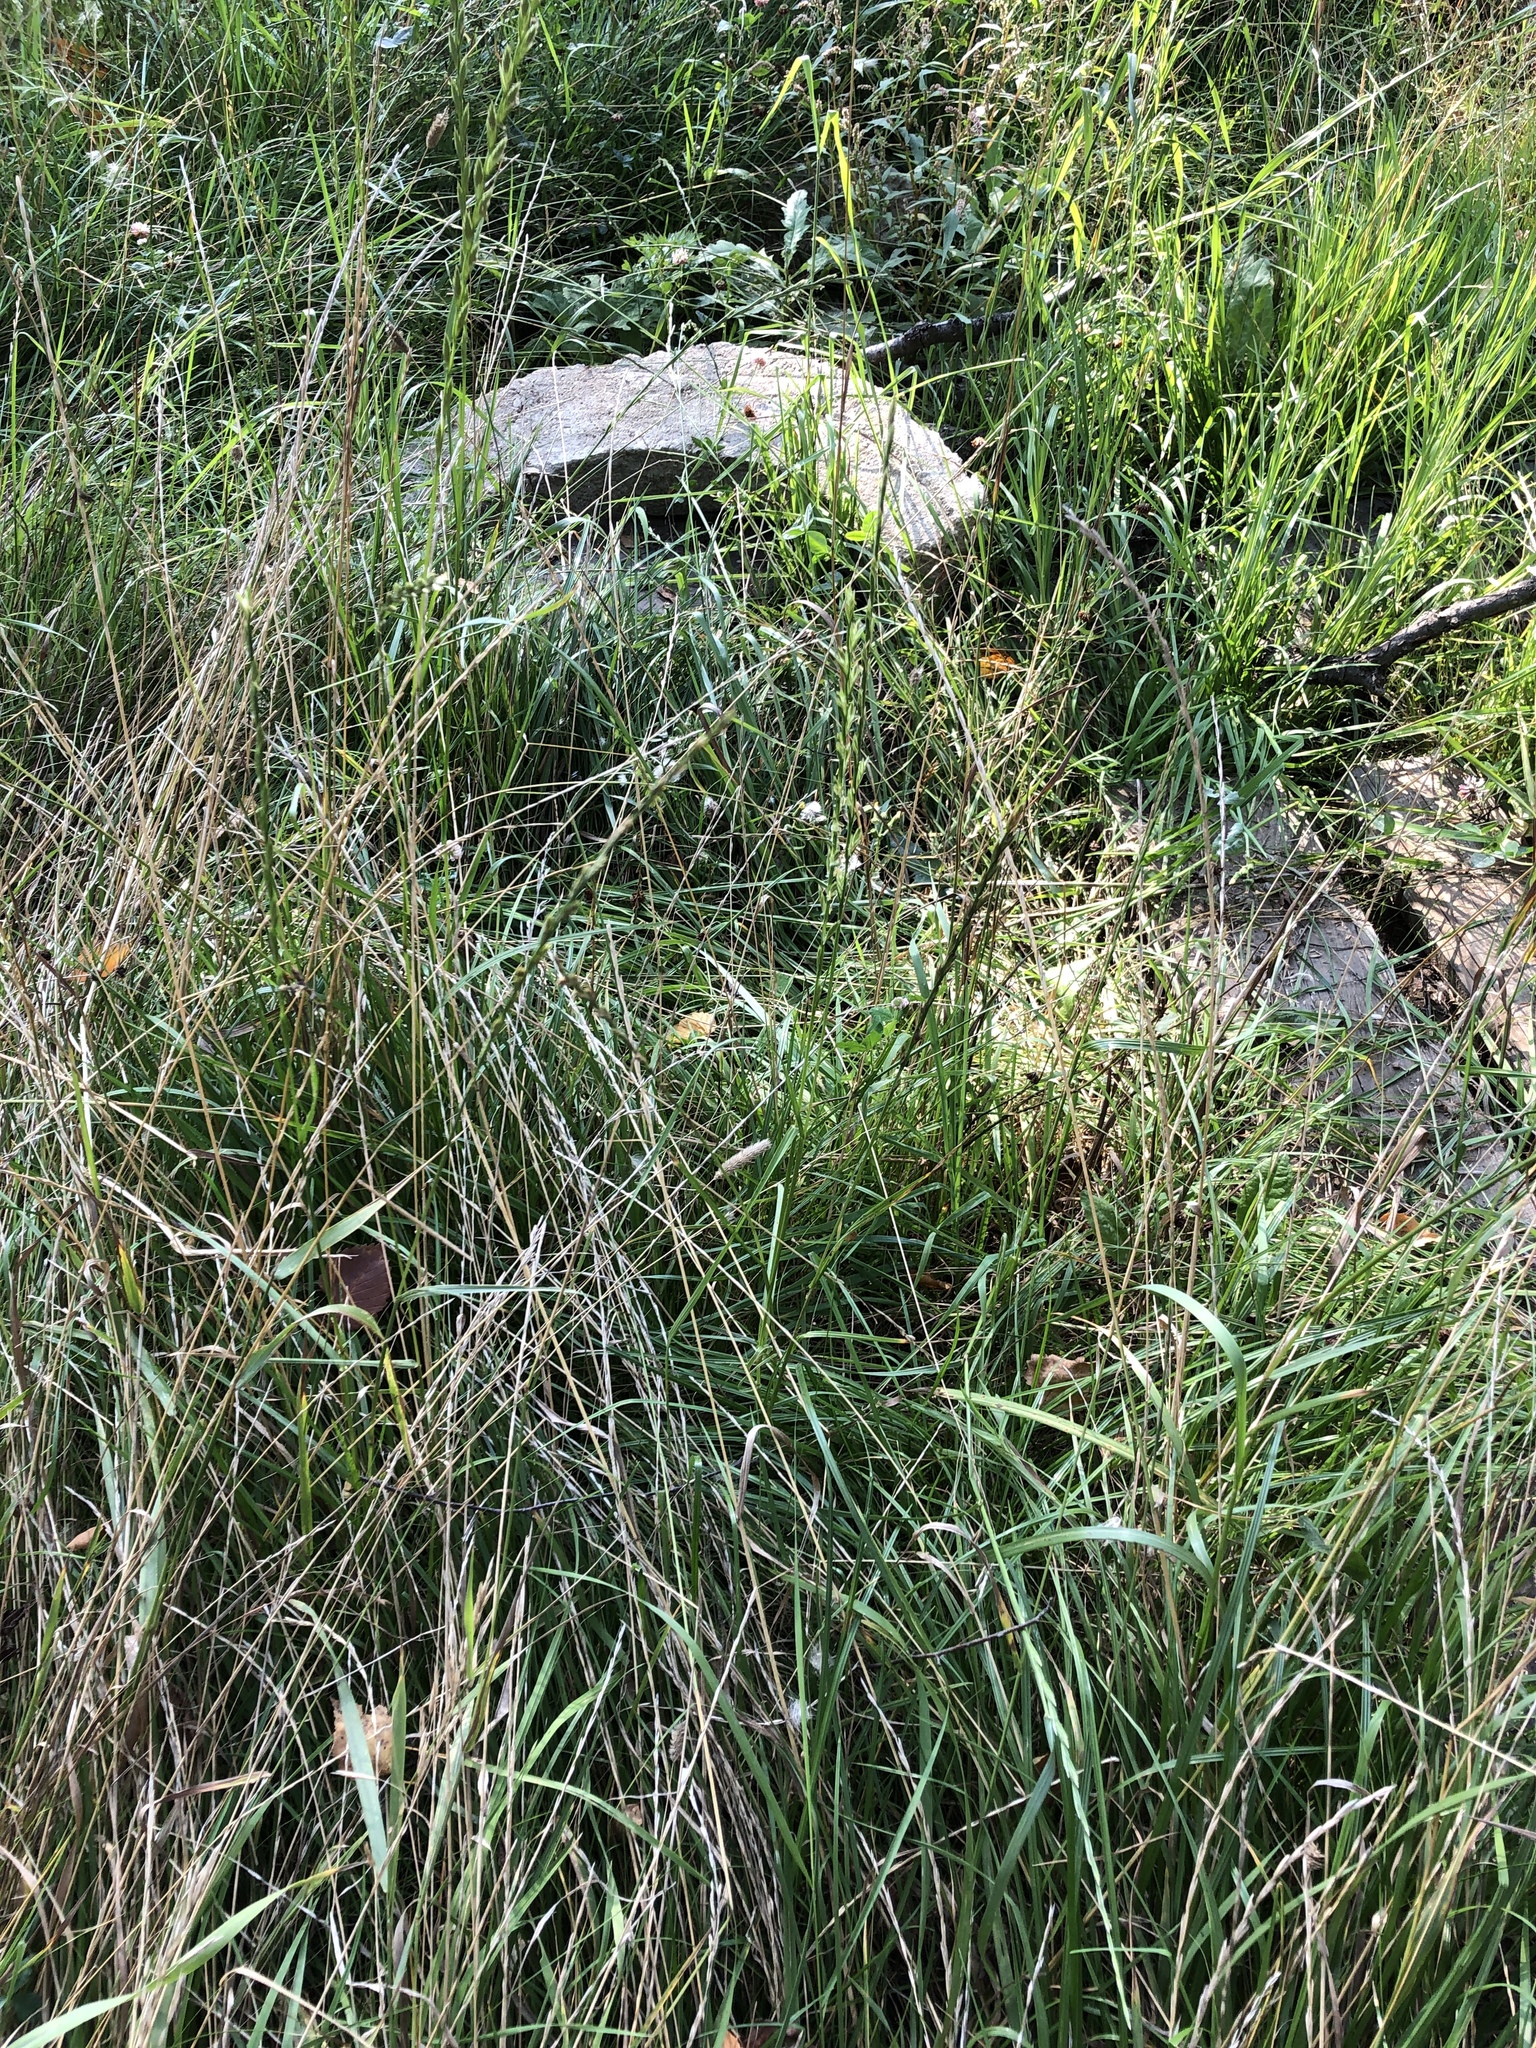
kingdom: Plantae
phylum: Tracheophyta
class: Liliopsida
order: Poales
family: Poaceae
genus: Lolium
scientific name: Lolium perenne
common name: Perennial ryegrass
